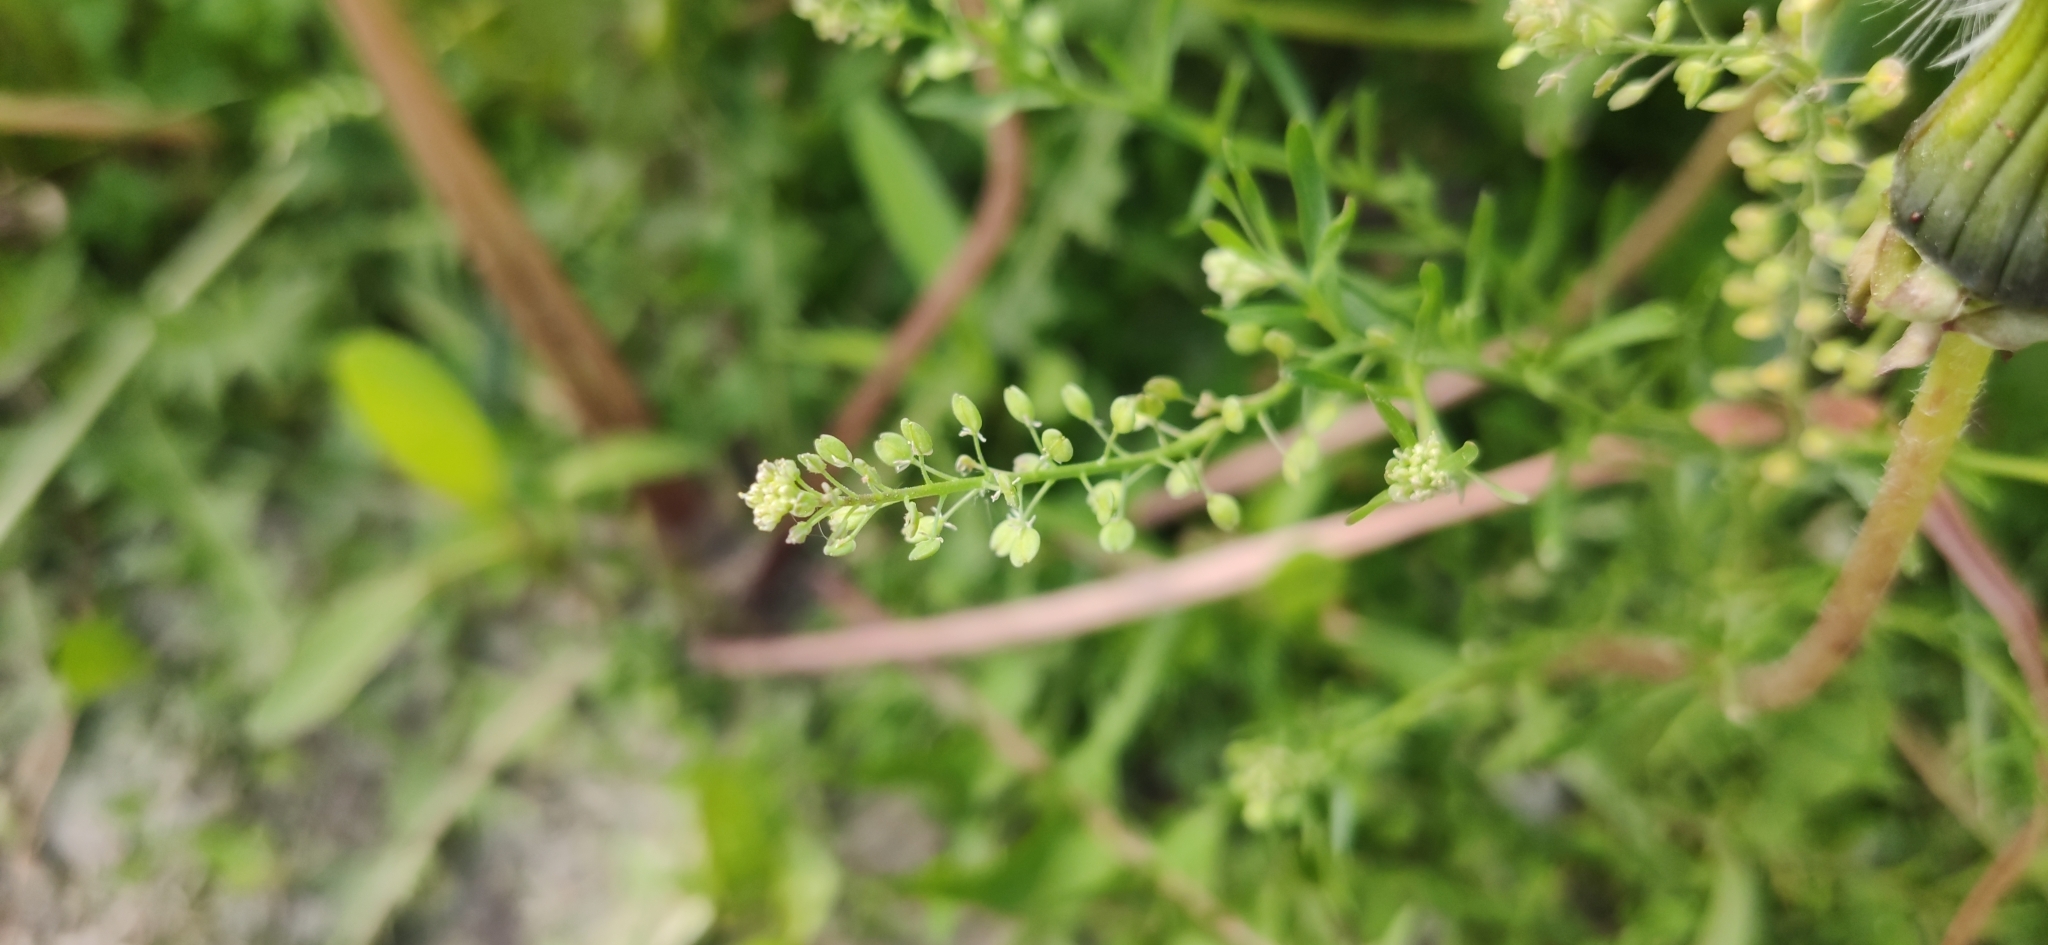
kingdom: Plantae
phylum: Tracheophyta
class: Magnoliopsida
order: Brassicales
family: Brassicaceae
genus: Lepidium
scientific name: Lepidium ruderale
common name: Narrow-leaved pepperwort
